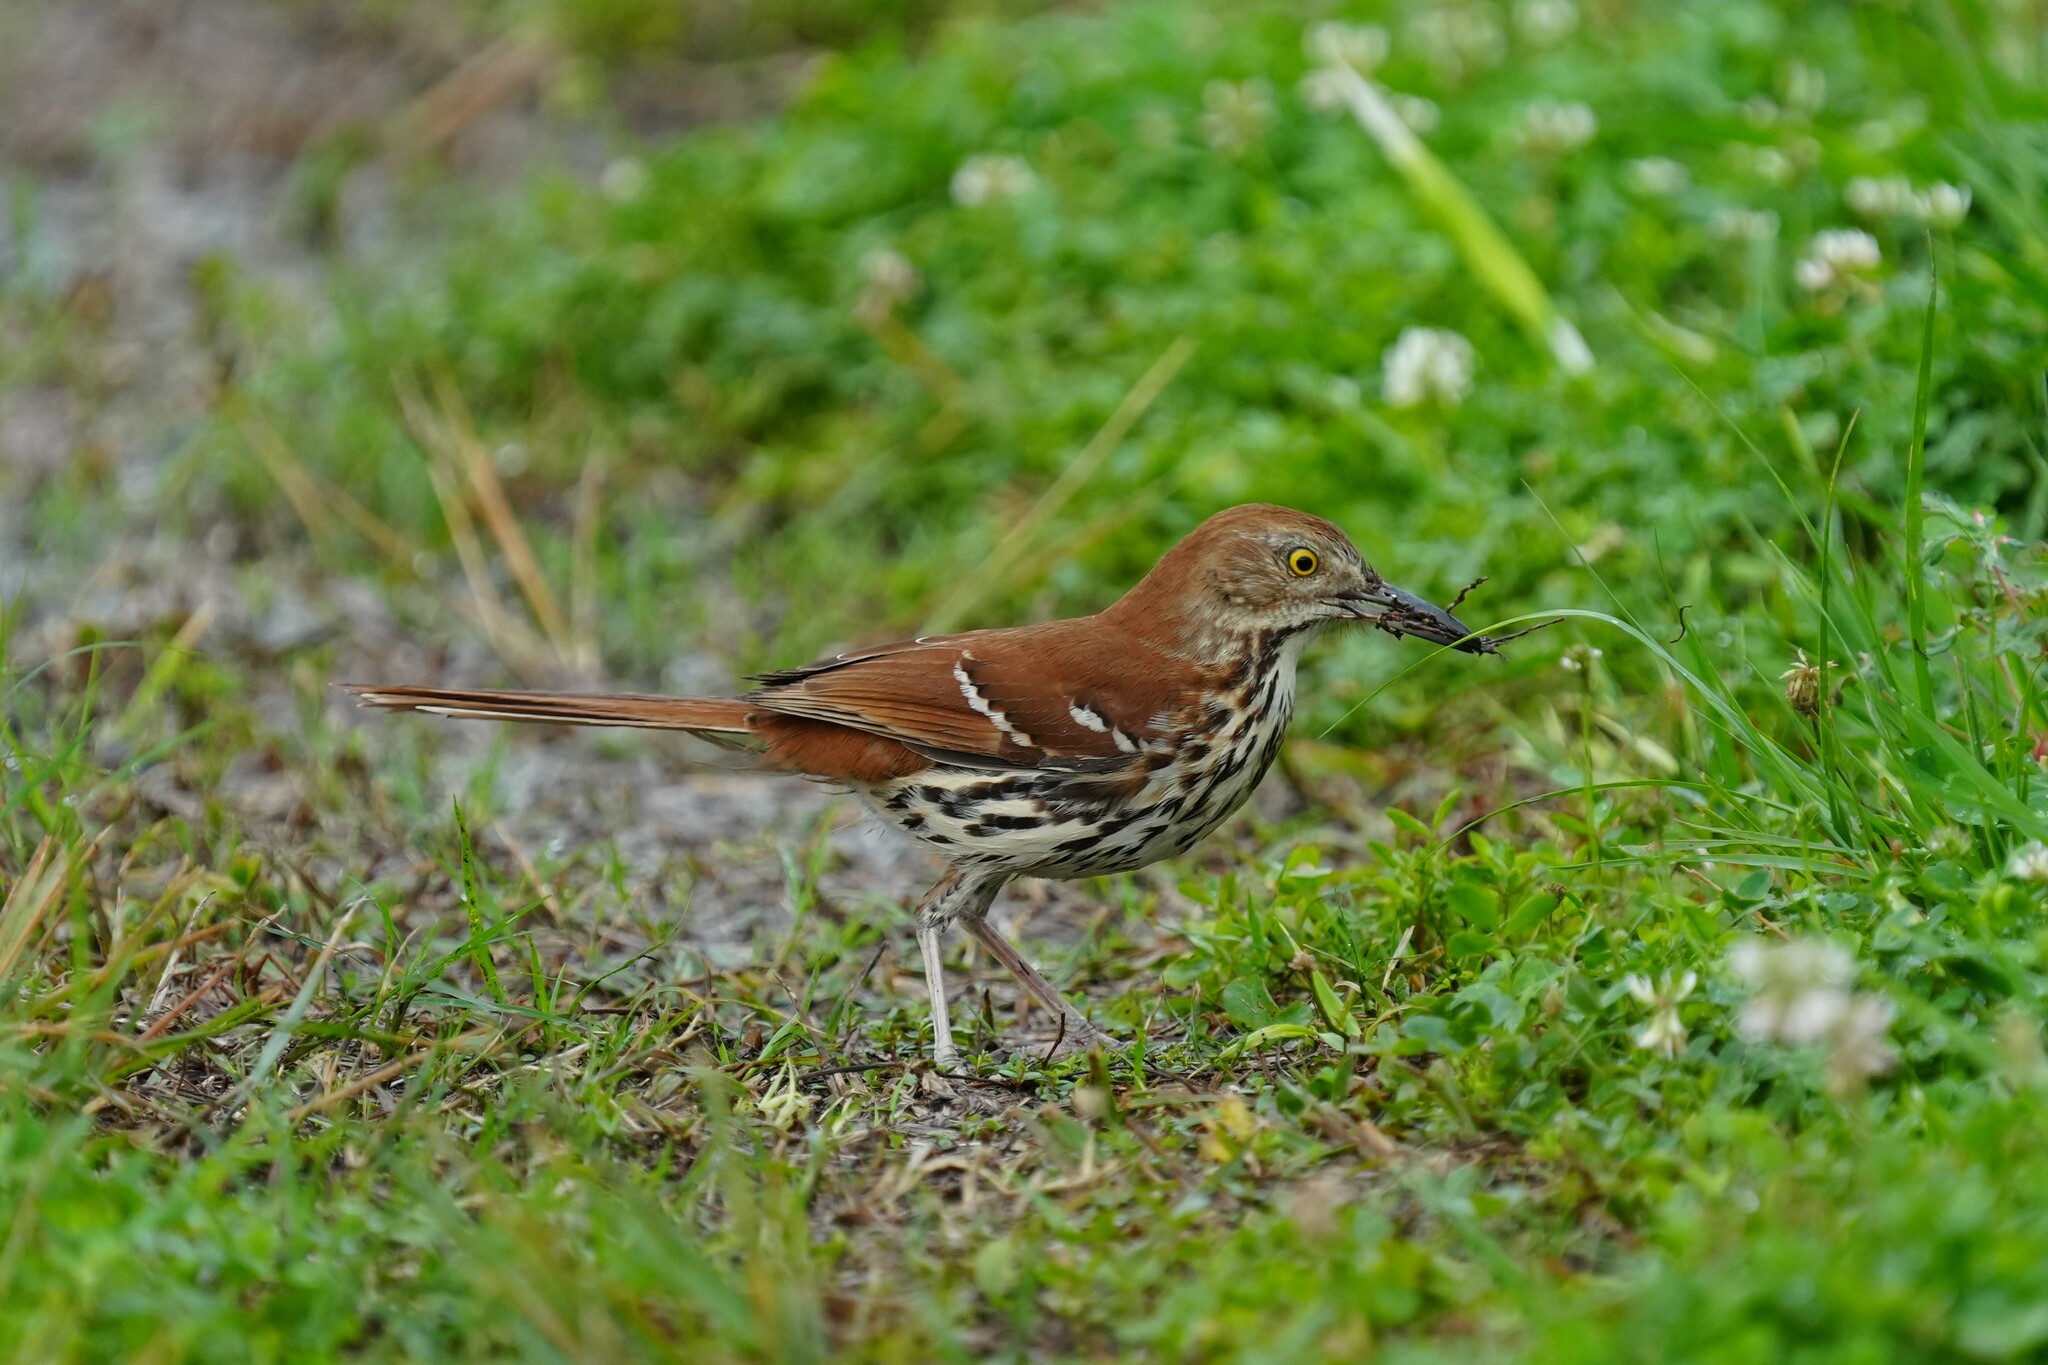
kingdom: Animalia
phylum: Chordata
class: Aves
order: Passeriformes
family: Mimidae
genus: Toxostoma
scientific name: Toxostoma rufum
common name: Brown thrasher
